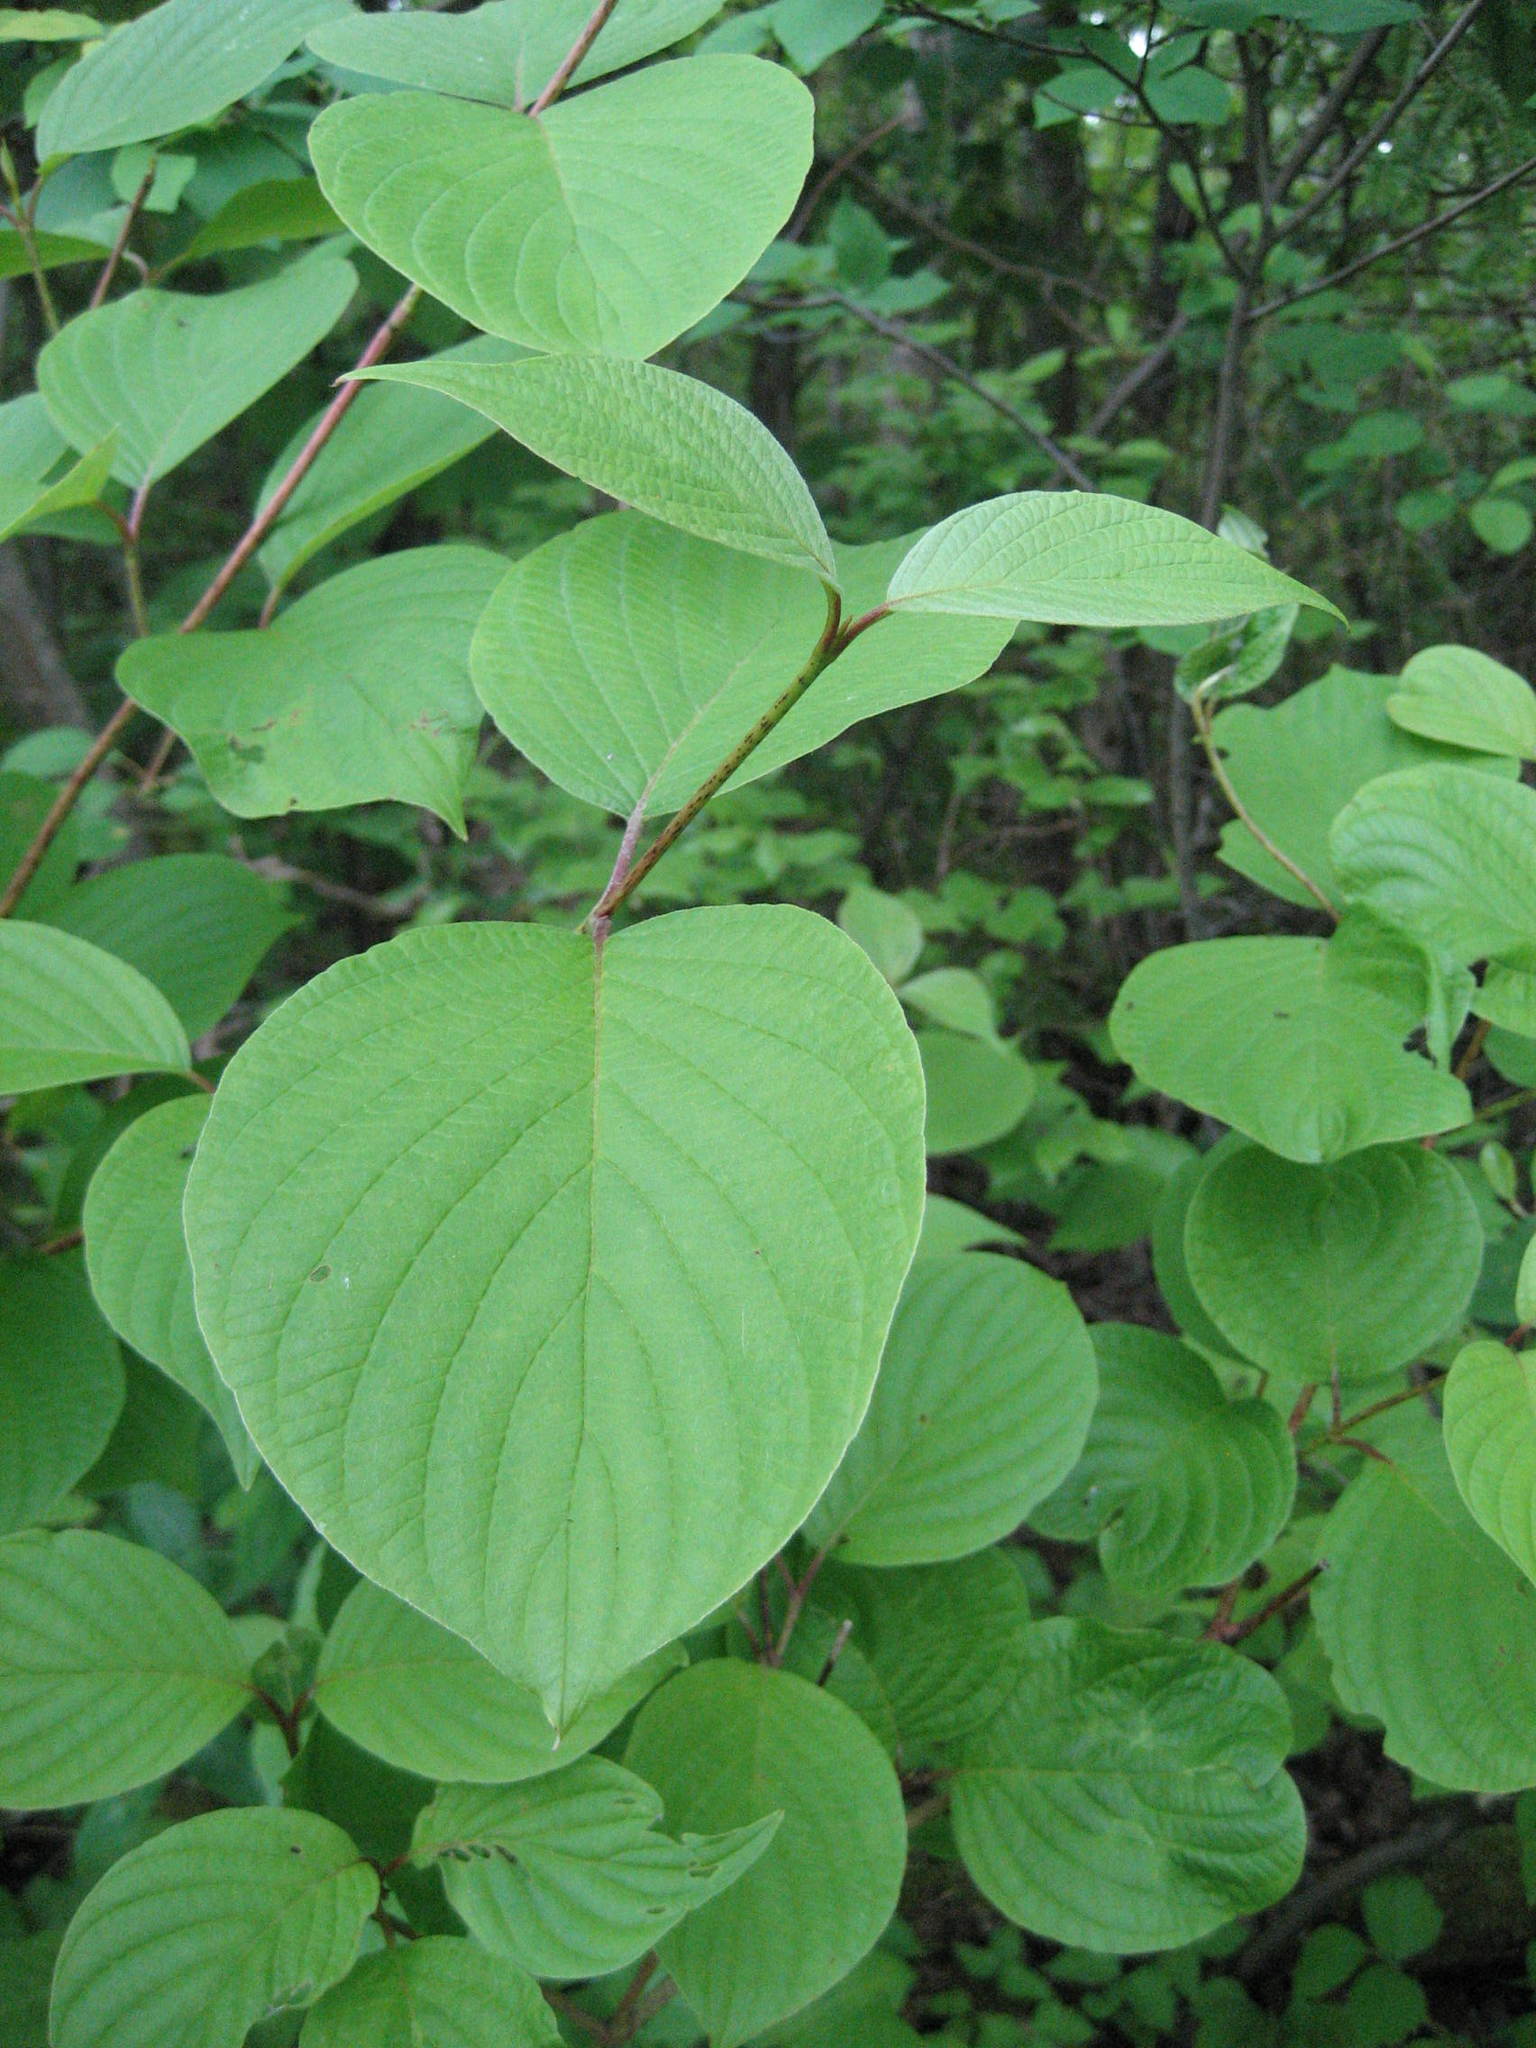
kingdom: Plantae
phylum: Tracheophyta
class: Magnoliopsida
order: Cornales
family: Cornaceae
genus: Cornus
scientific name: Cornus rugosa
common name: Round-leaf dogwood
